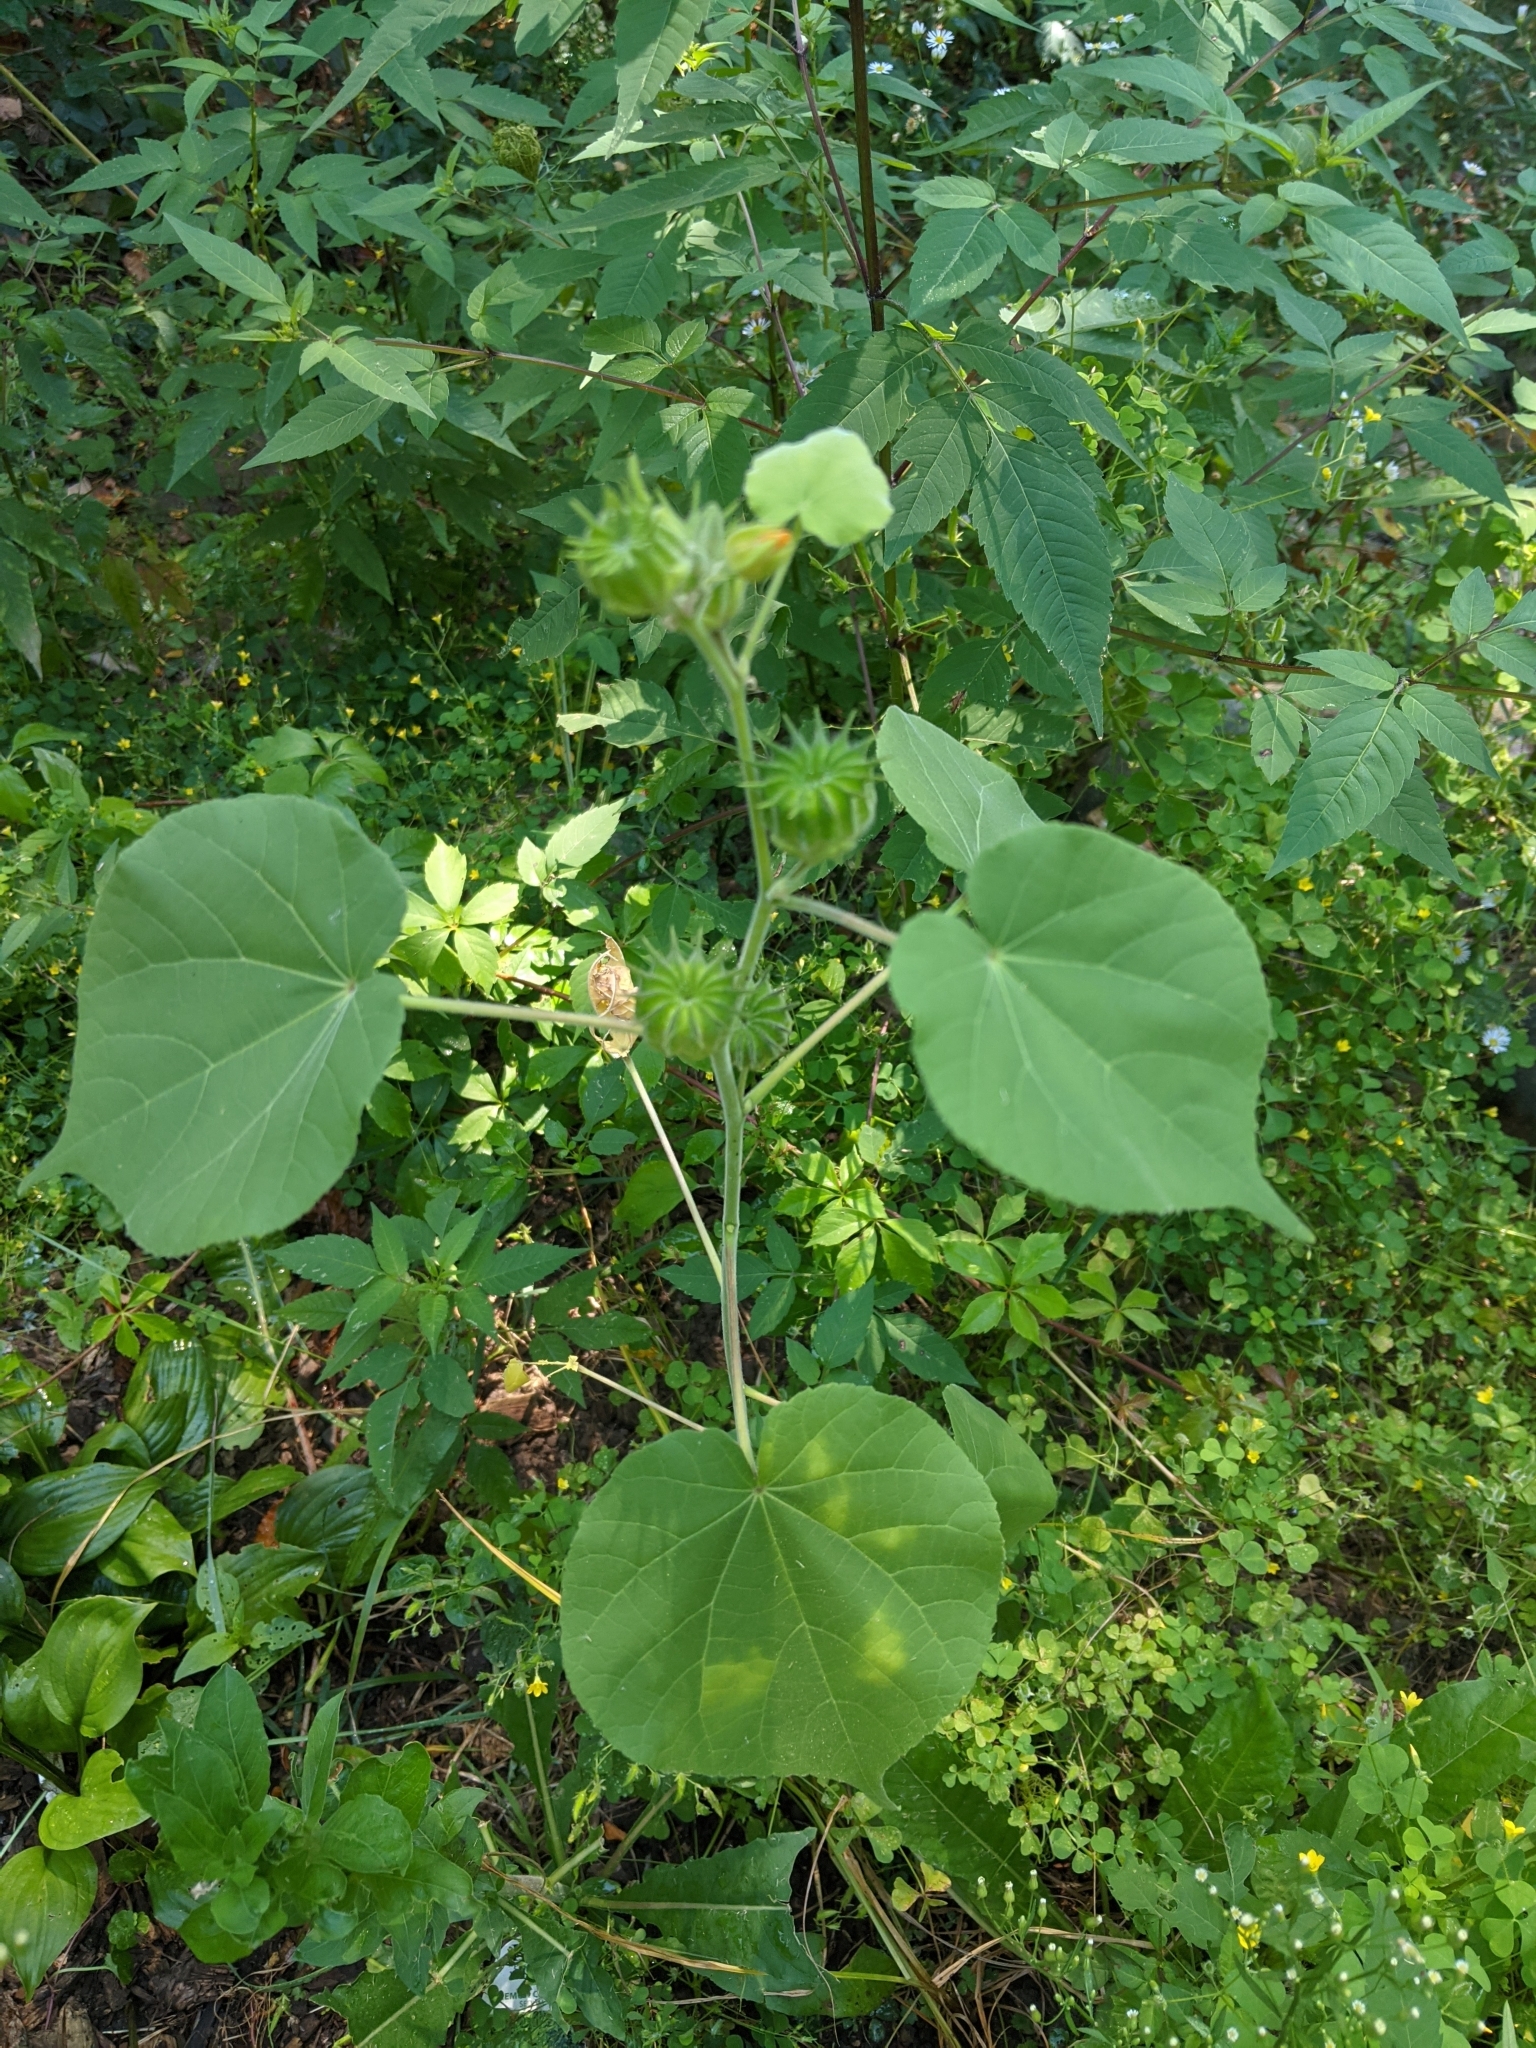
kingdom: Plantae
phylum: Tracheophyta
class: Magnoliopsida
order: Malvales
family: Malvaceae
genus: Abutilon
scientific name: Abutilon theophrasti
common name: Velvetleaf
